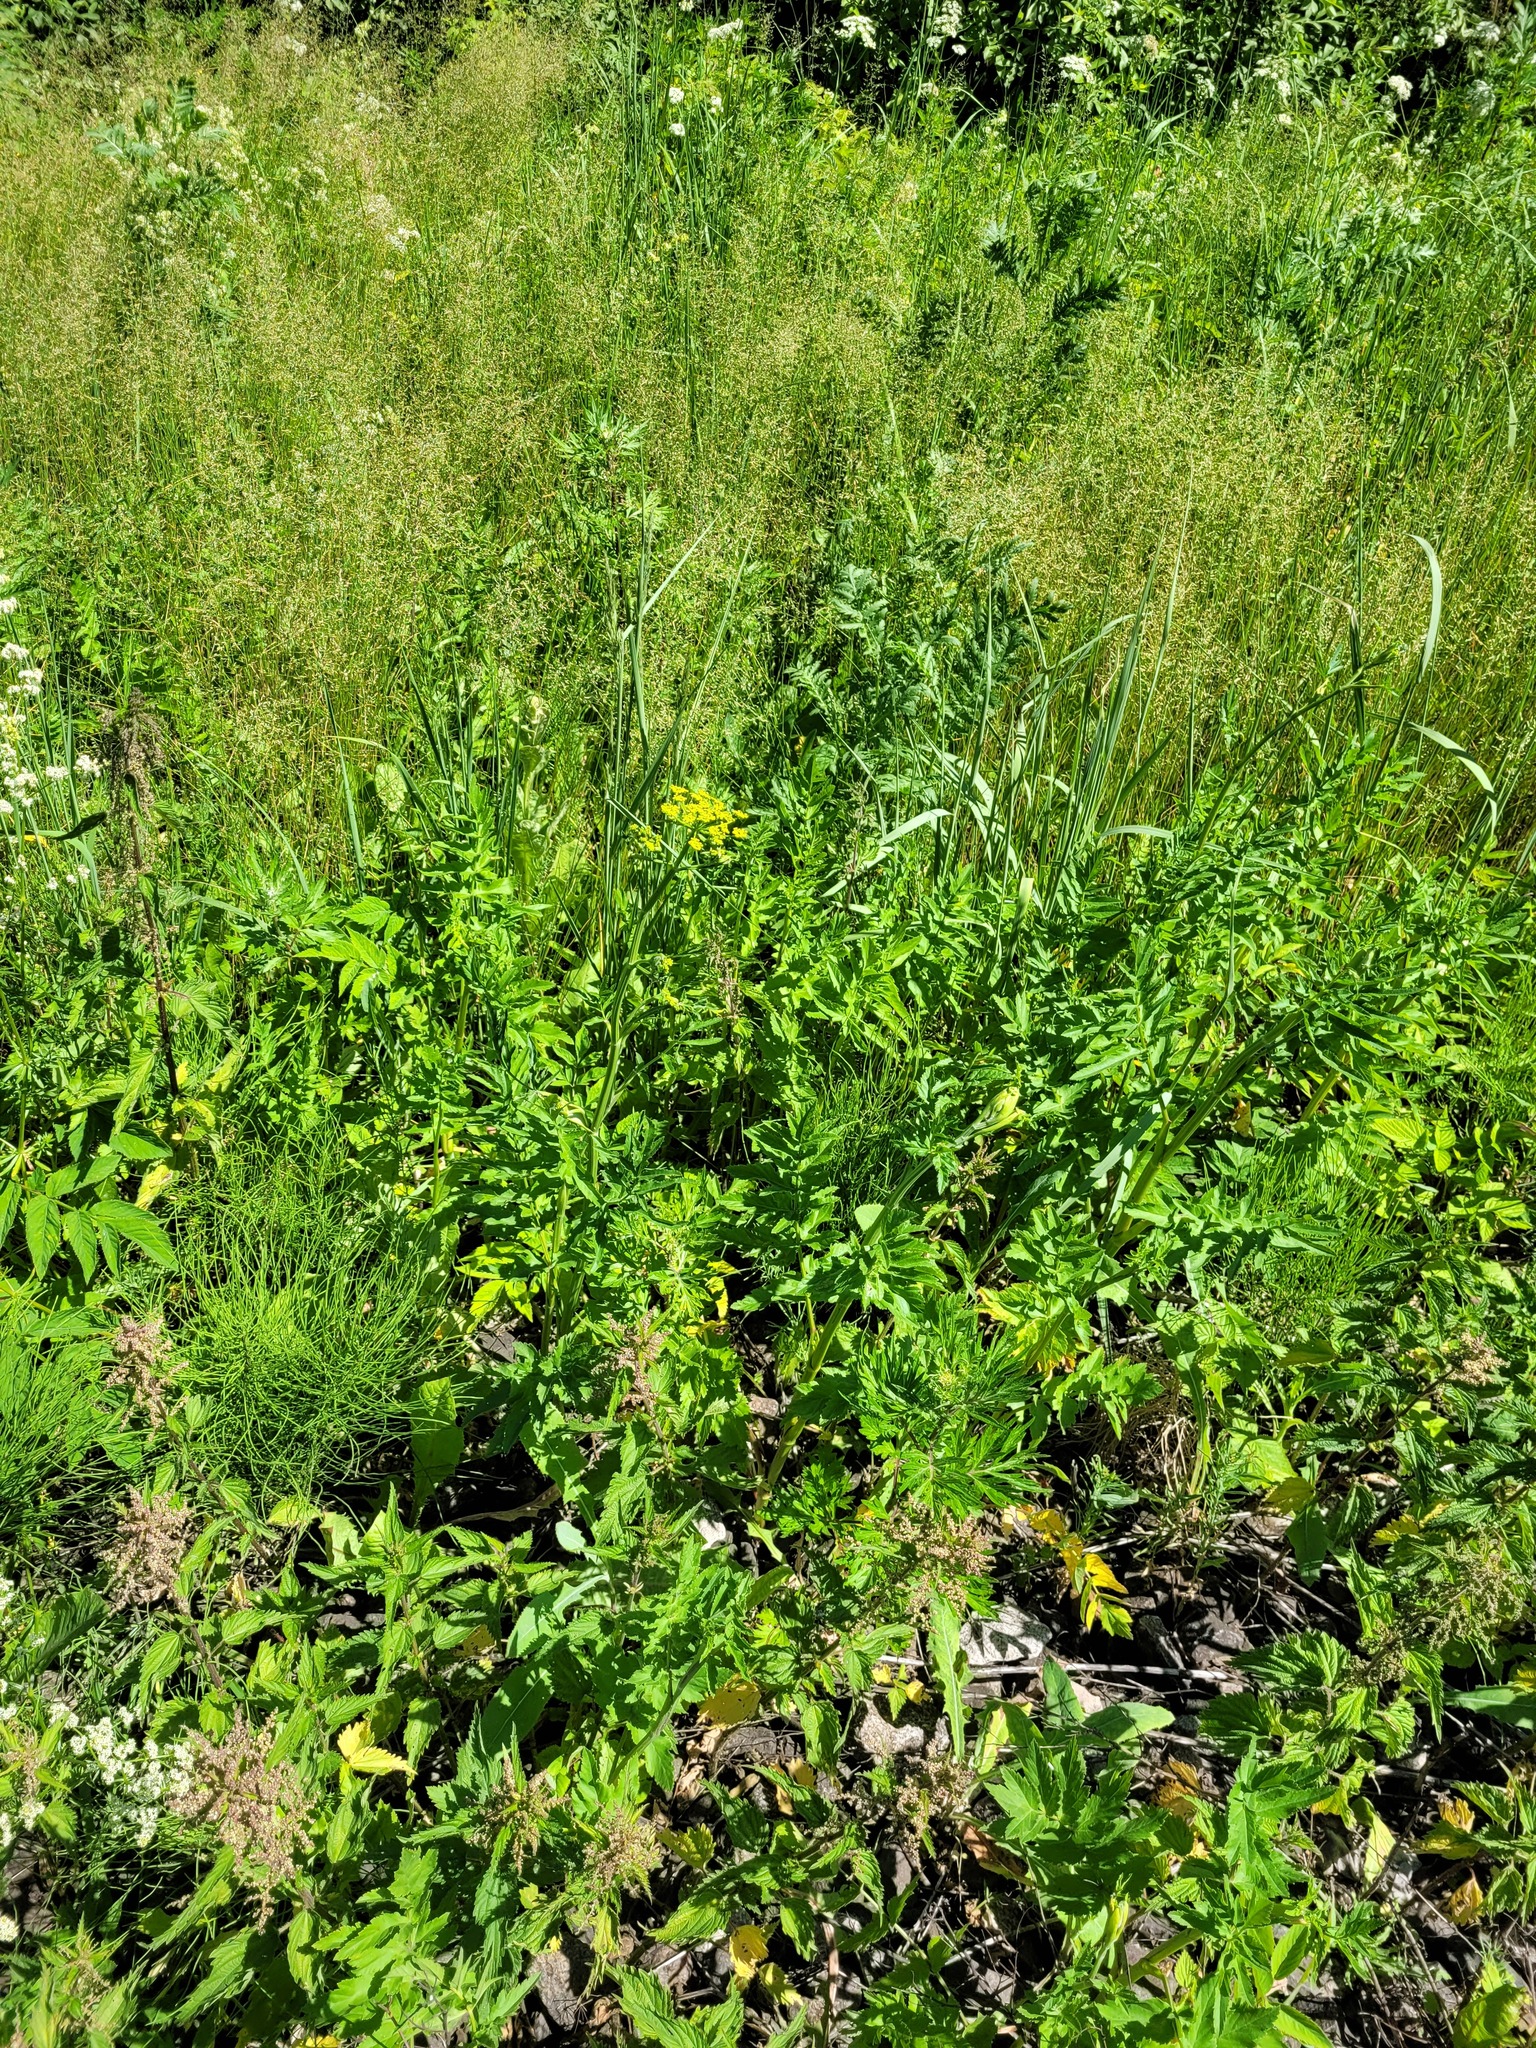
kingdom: Plantae
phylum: Tracheophyta
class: Magnoliopsida
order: Apiales
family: Apiaceae
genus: Pastinaca
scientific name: Pastinaca sativa
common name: Wild parsnip
